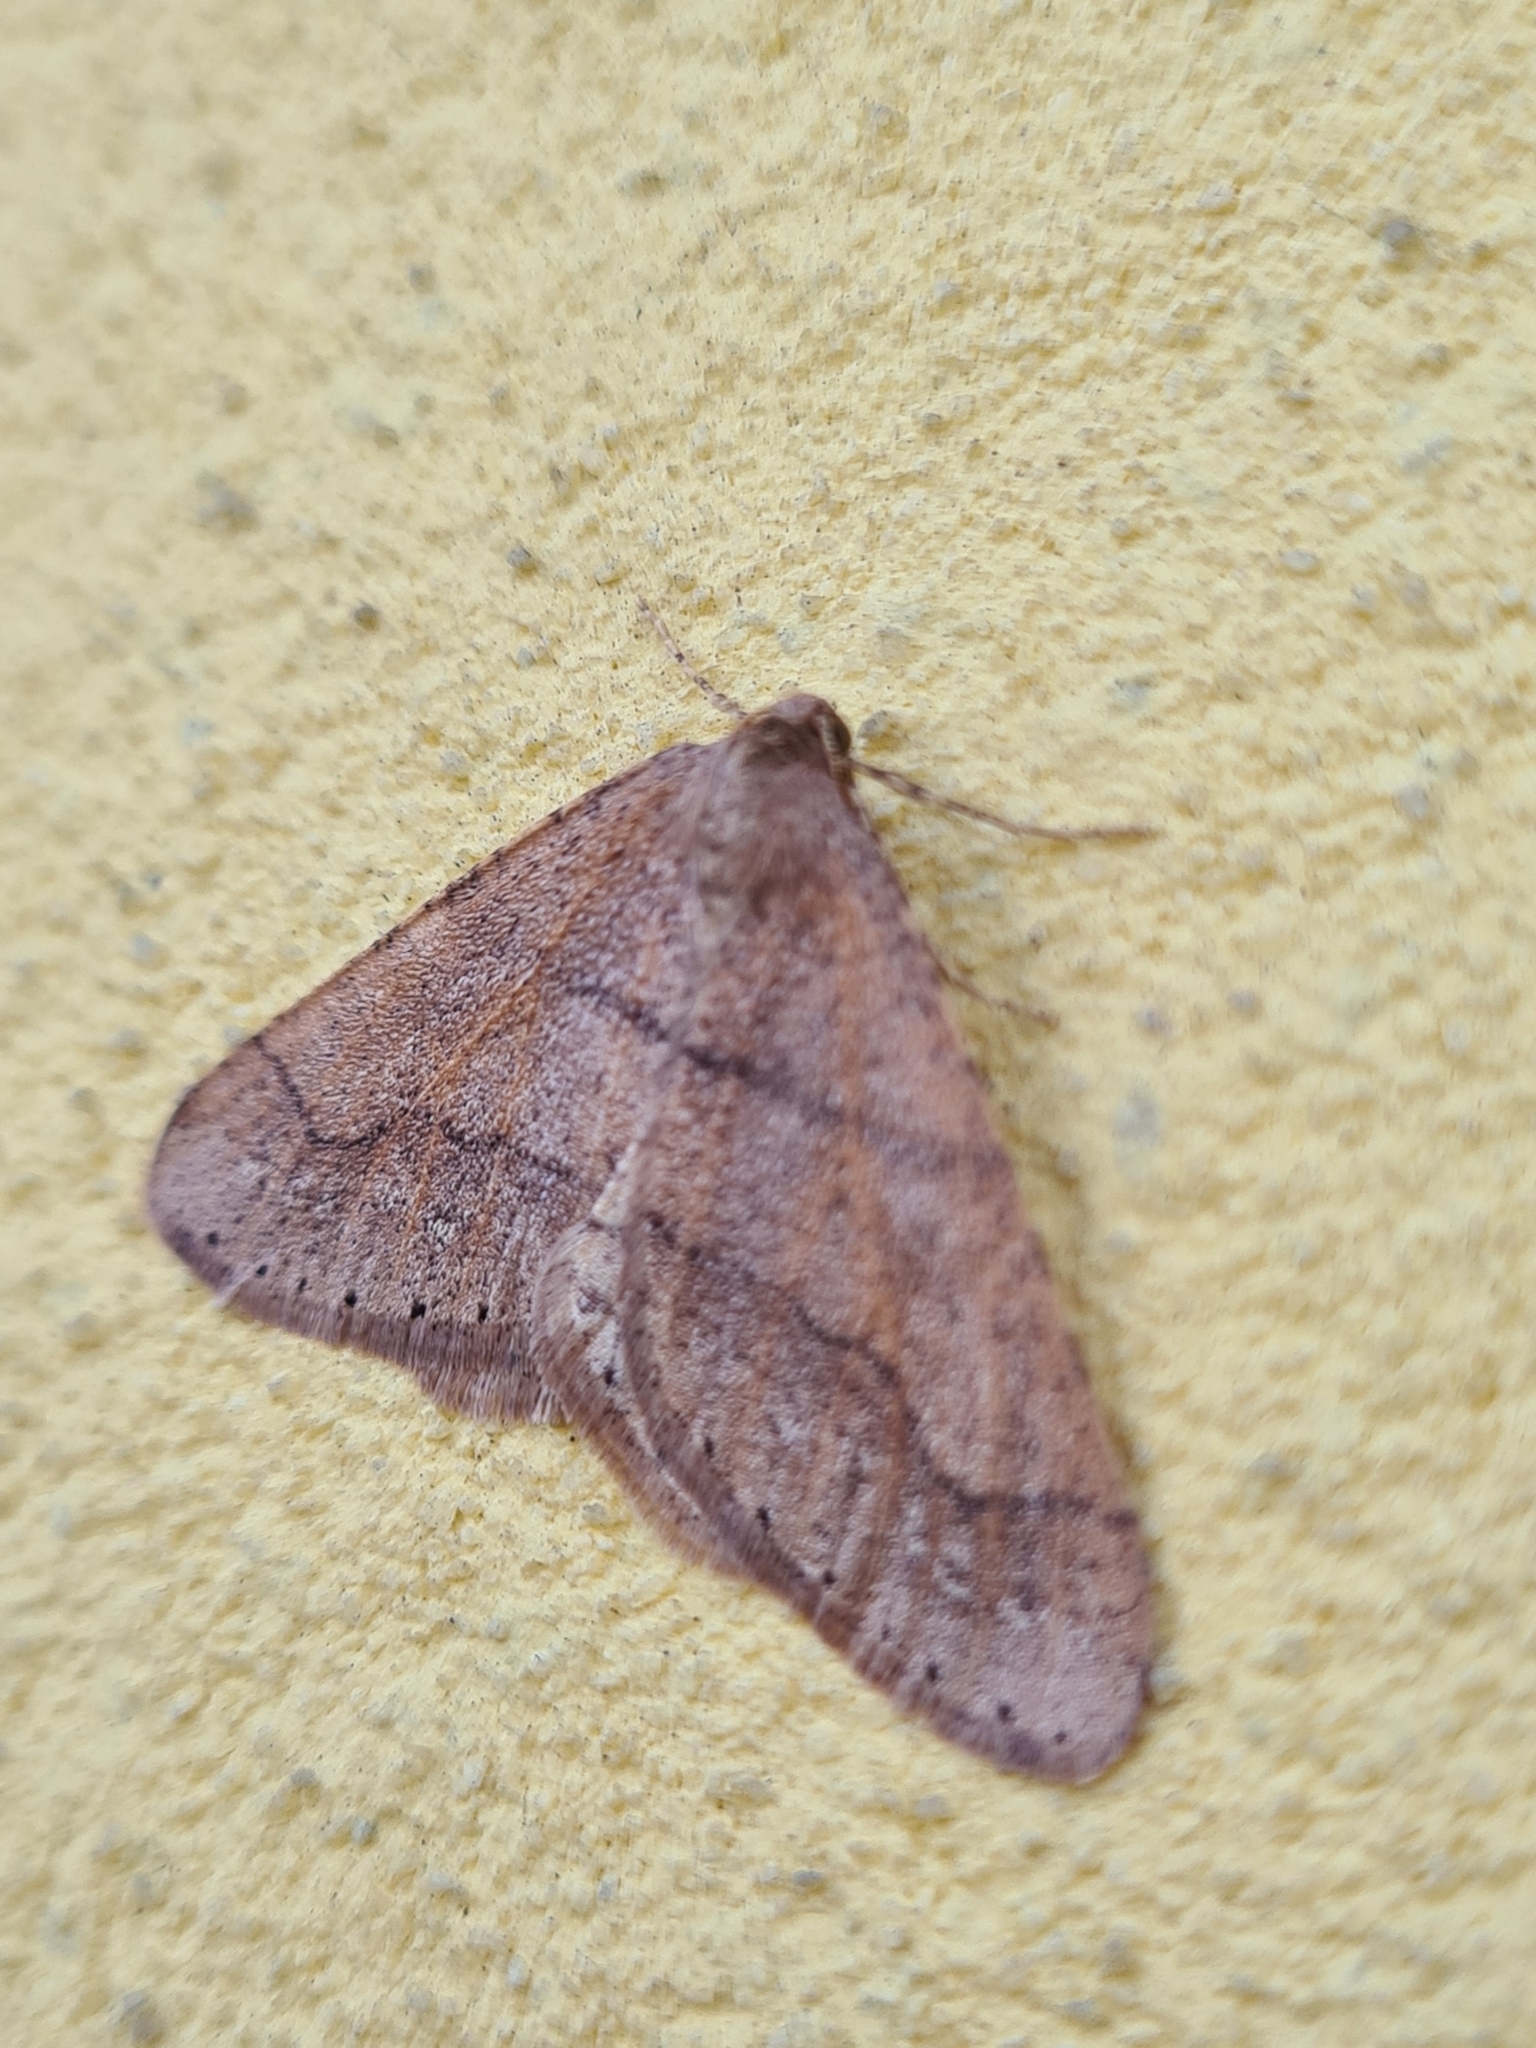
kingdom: Animalia
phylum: Arthropoda
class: Insecta
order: Lepidoptera
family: Geometridae
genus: Agriopis
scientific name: Agriopis marginaria
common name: Dotted border
